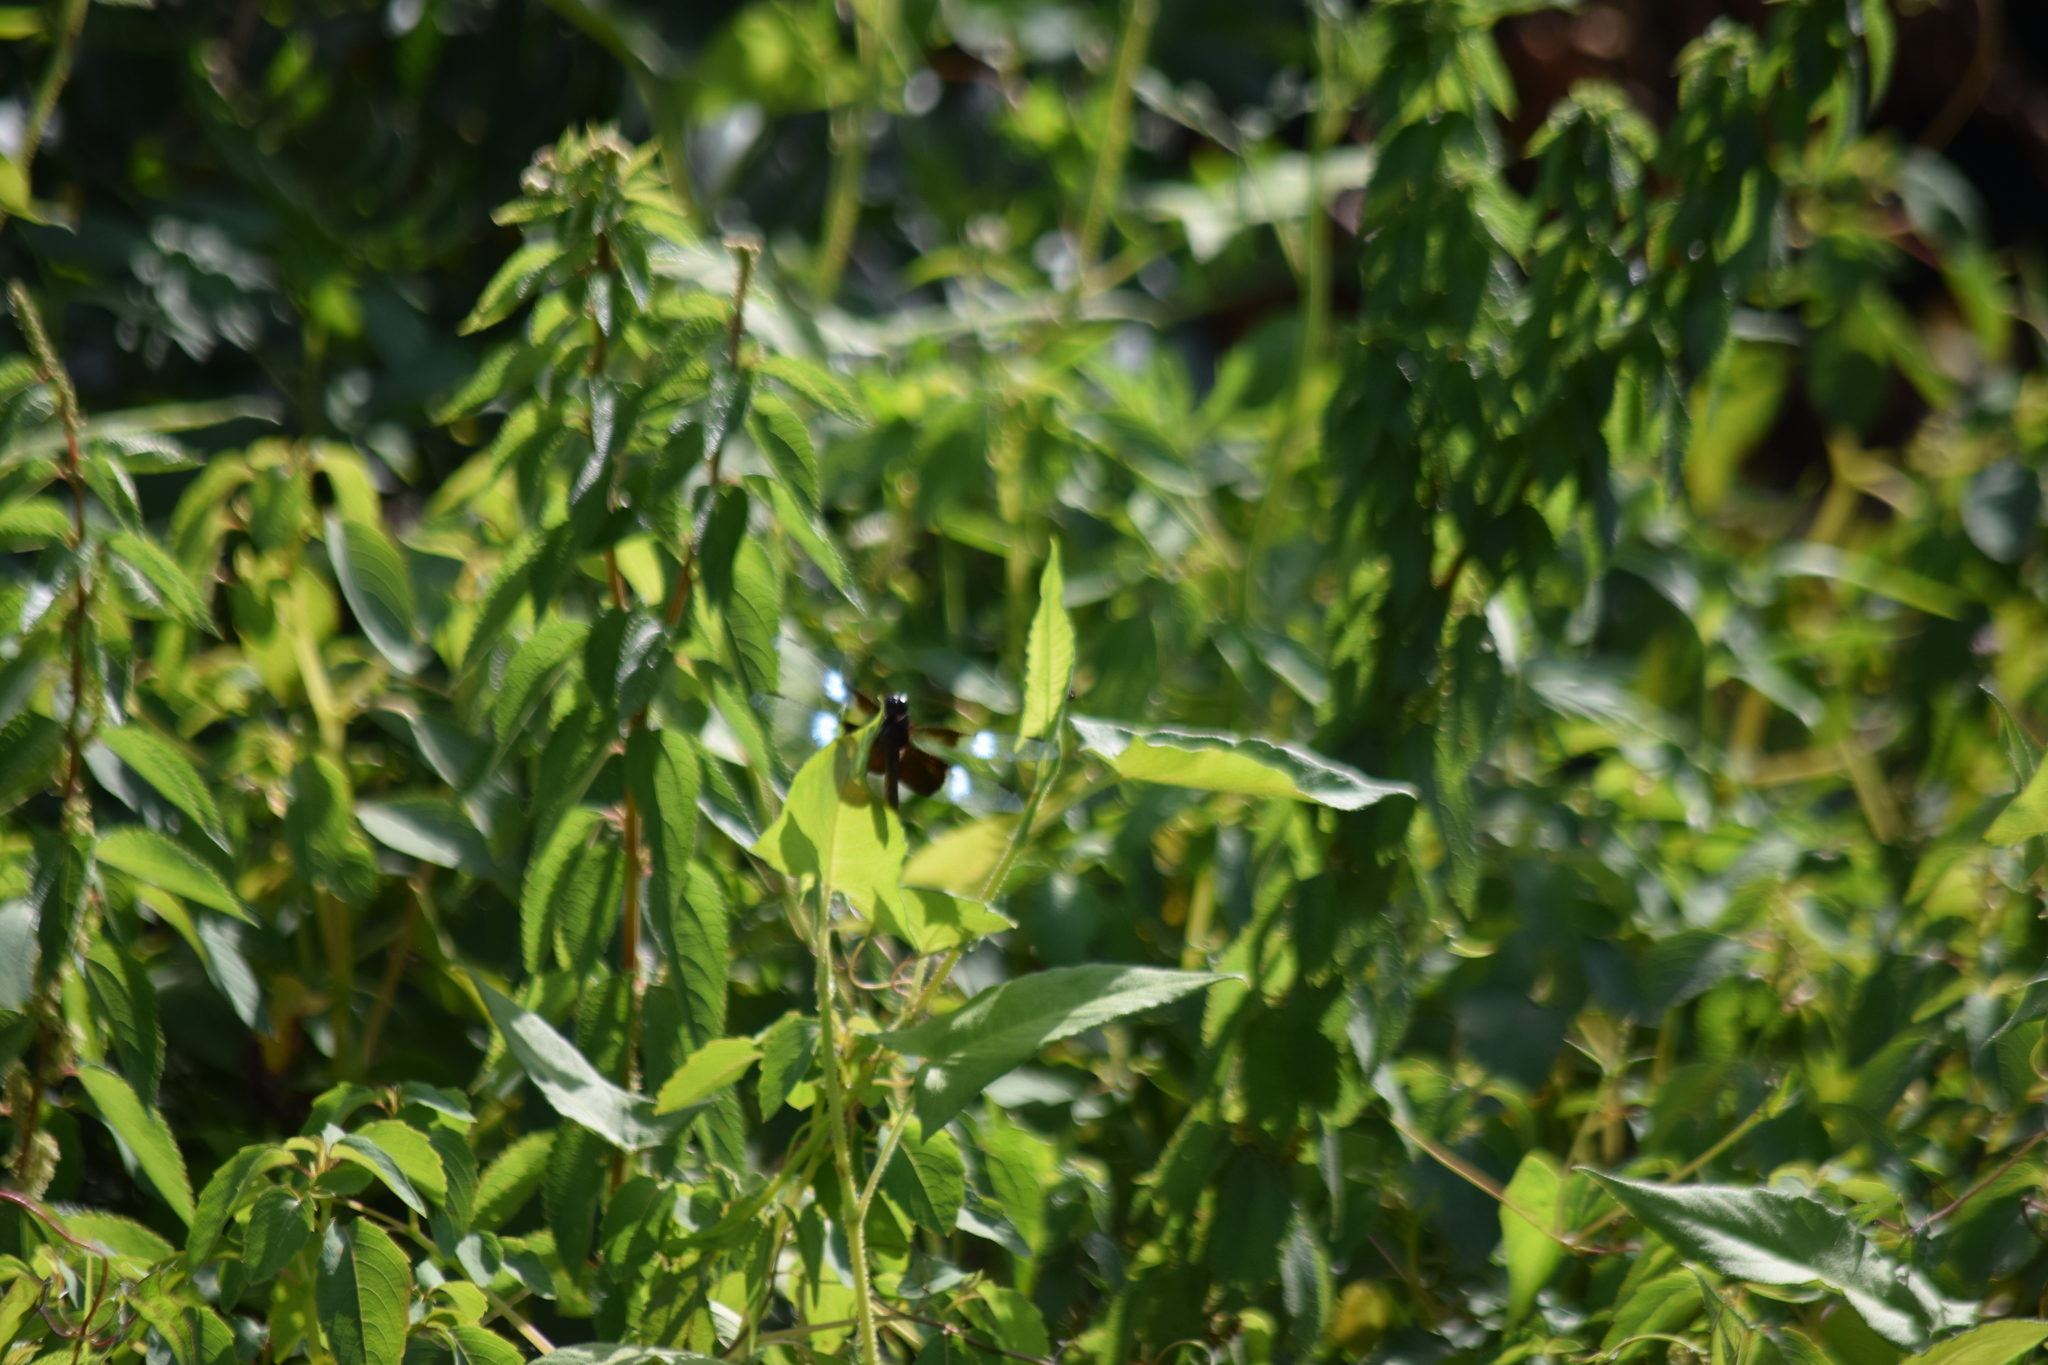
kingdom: Animalia
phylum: Arthropoda
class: Insecta
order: Odonata
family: Libellulidae
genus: Libellula
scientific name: Libellula luctuosa
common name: Widow skimmer
